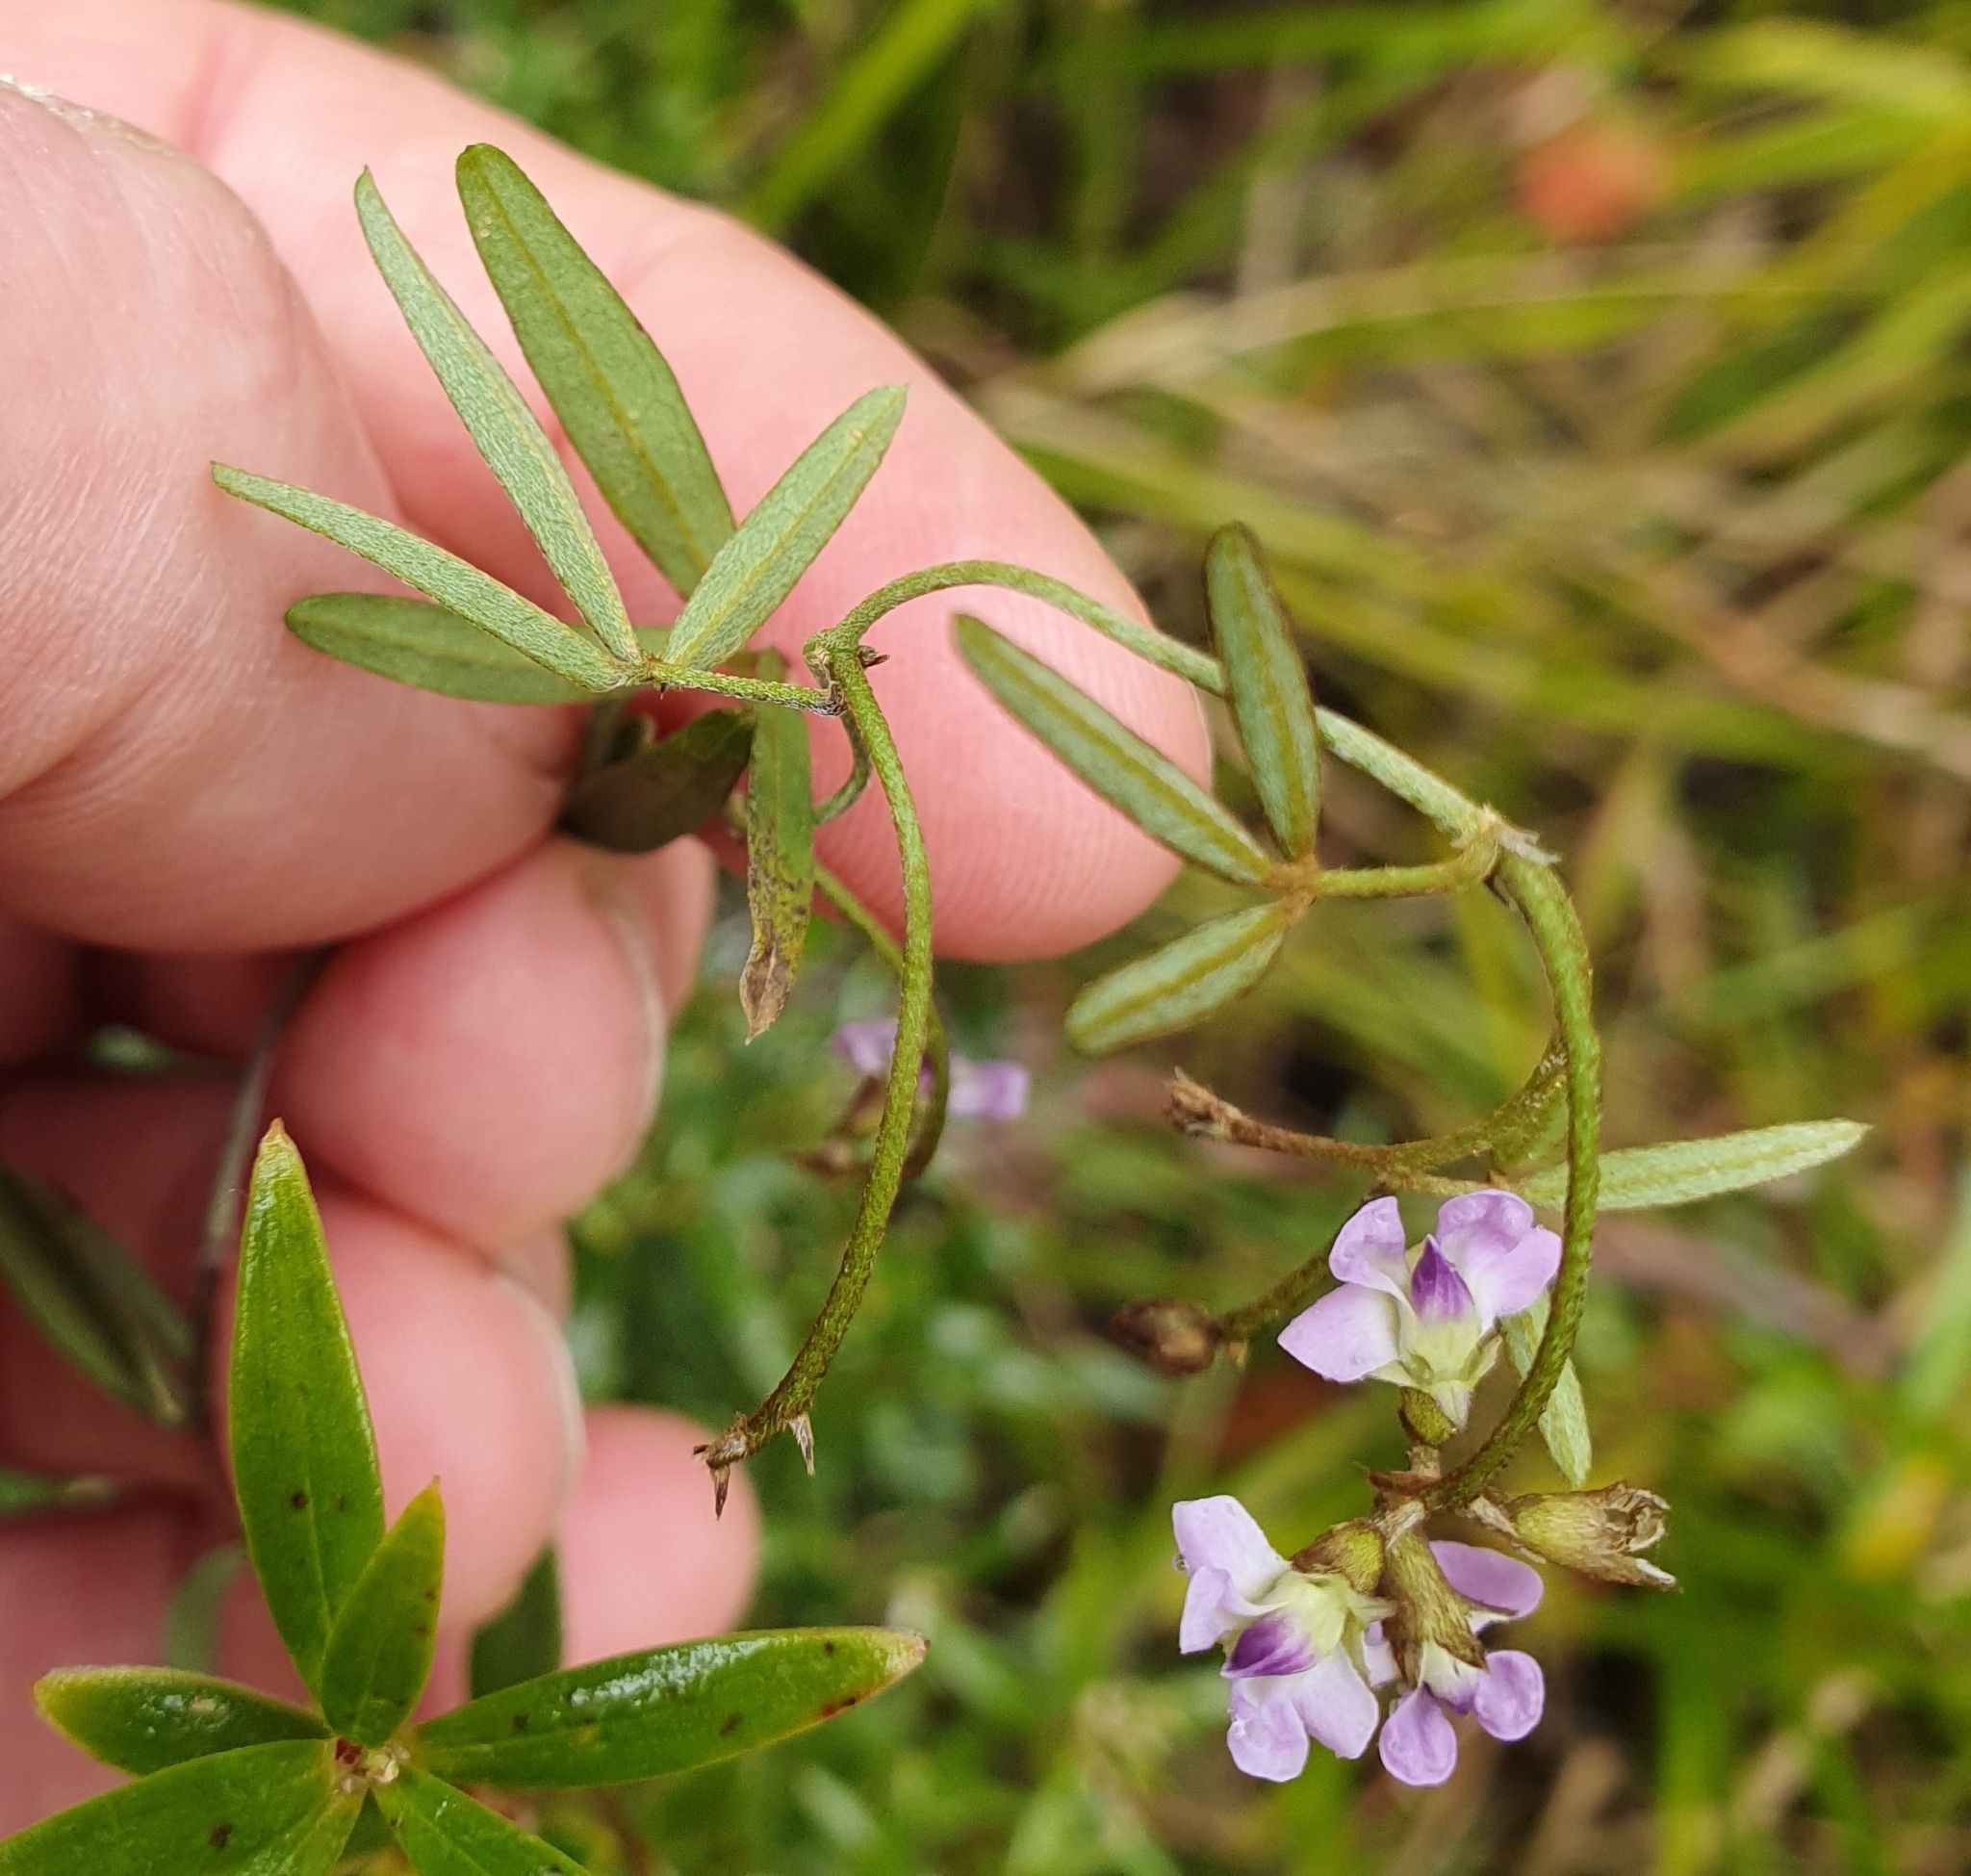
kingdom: Plantae
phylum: Tracheophyta
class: Magnoliopsida
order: Fabales
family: Fabaceae
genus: Glycine
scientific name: Glycine clandestina
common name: Twining glycine
